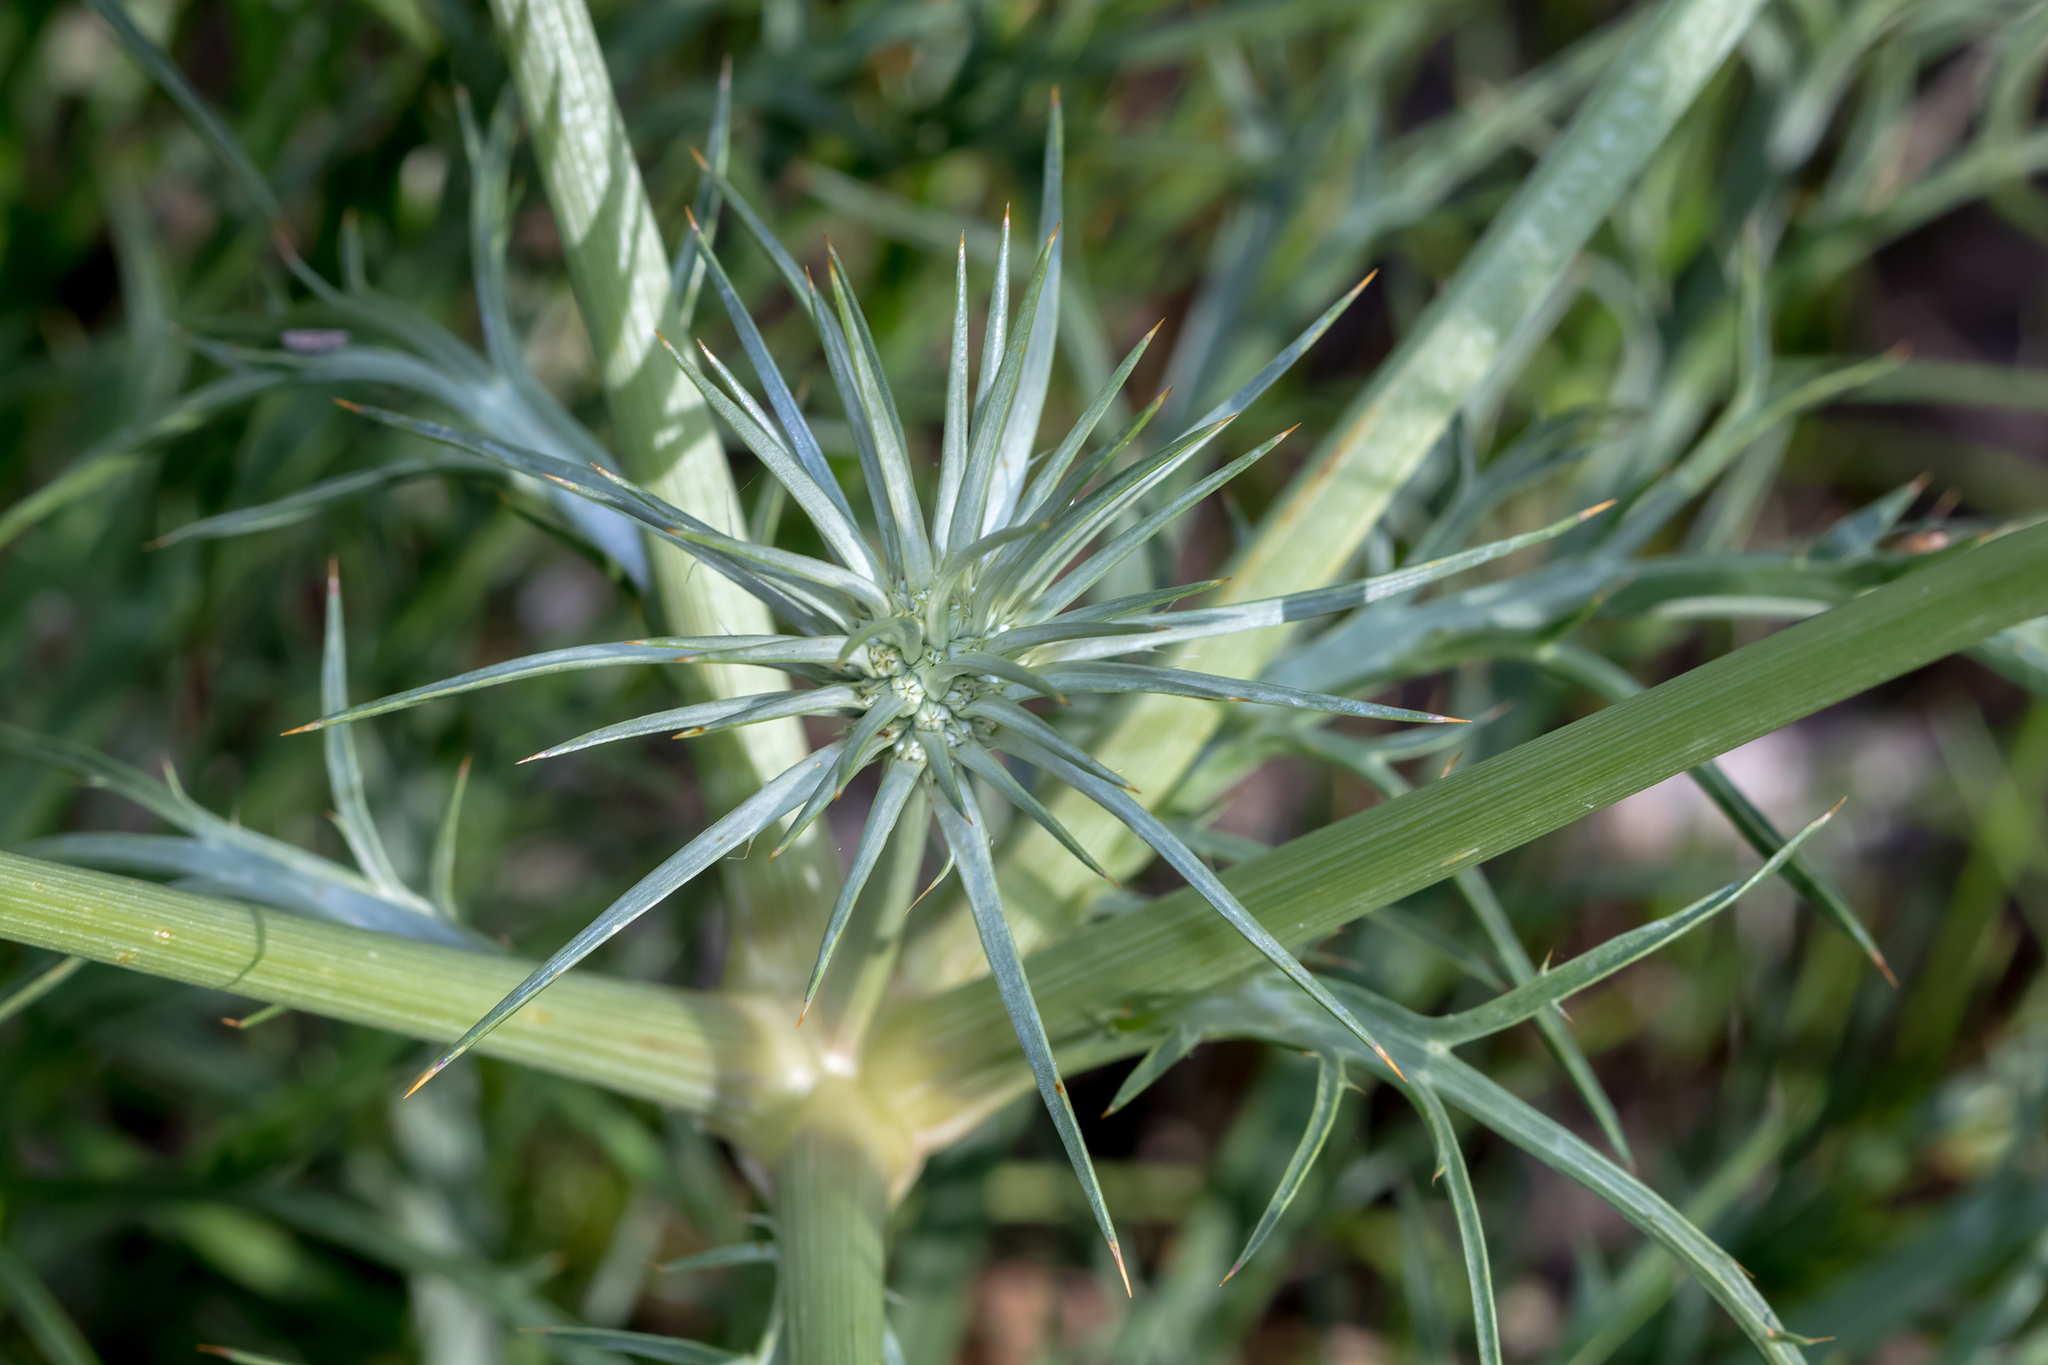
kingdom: Plantae
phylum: Tracheophyta
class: Magnoliopsida
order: Apiales
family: Apiaceae
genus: Eryngium
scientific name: Eryngium ovinum
